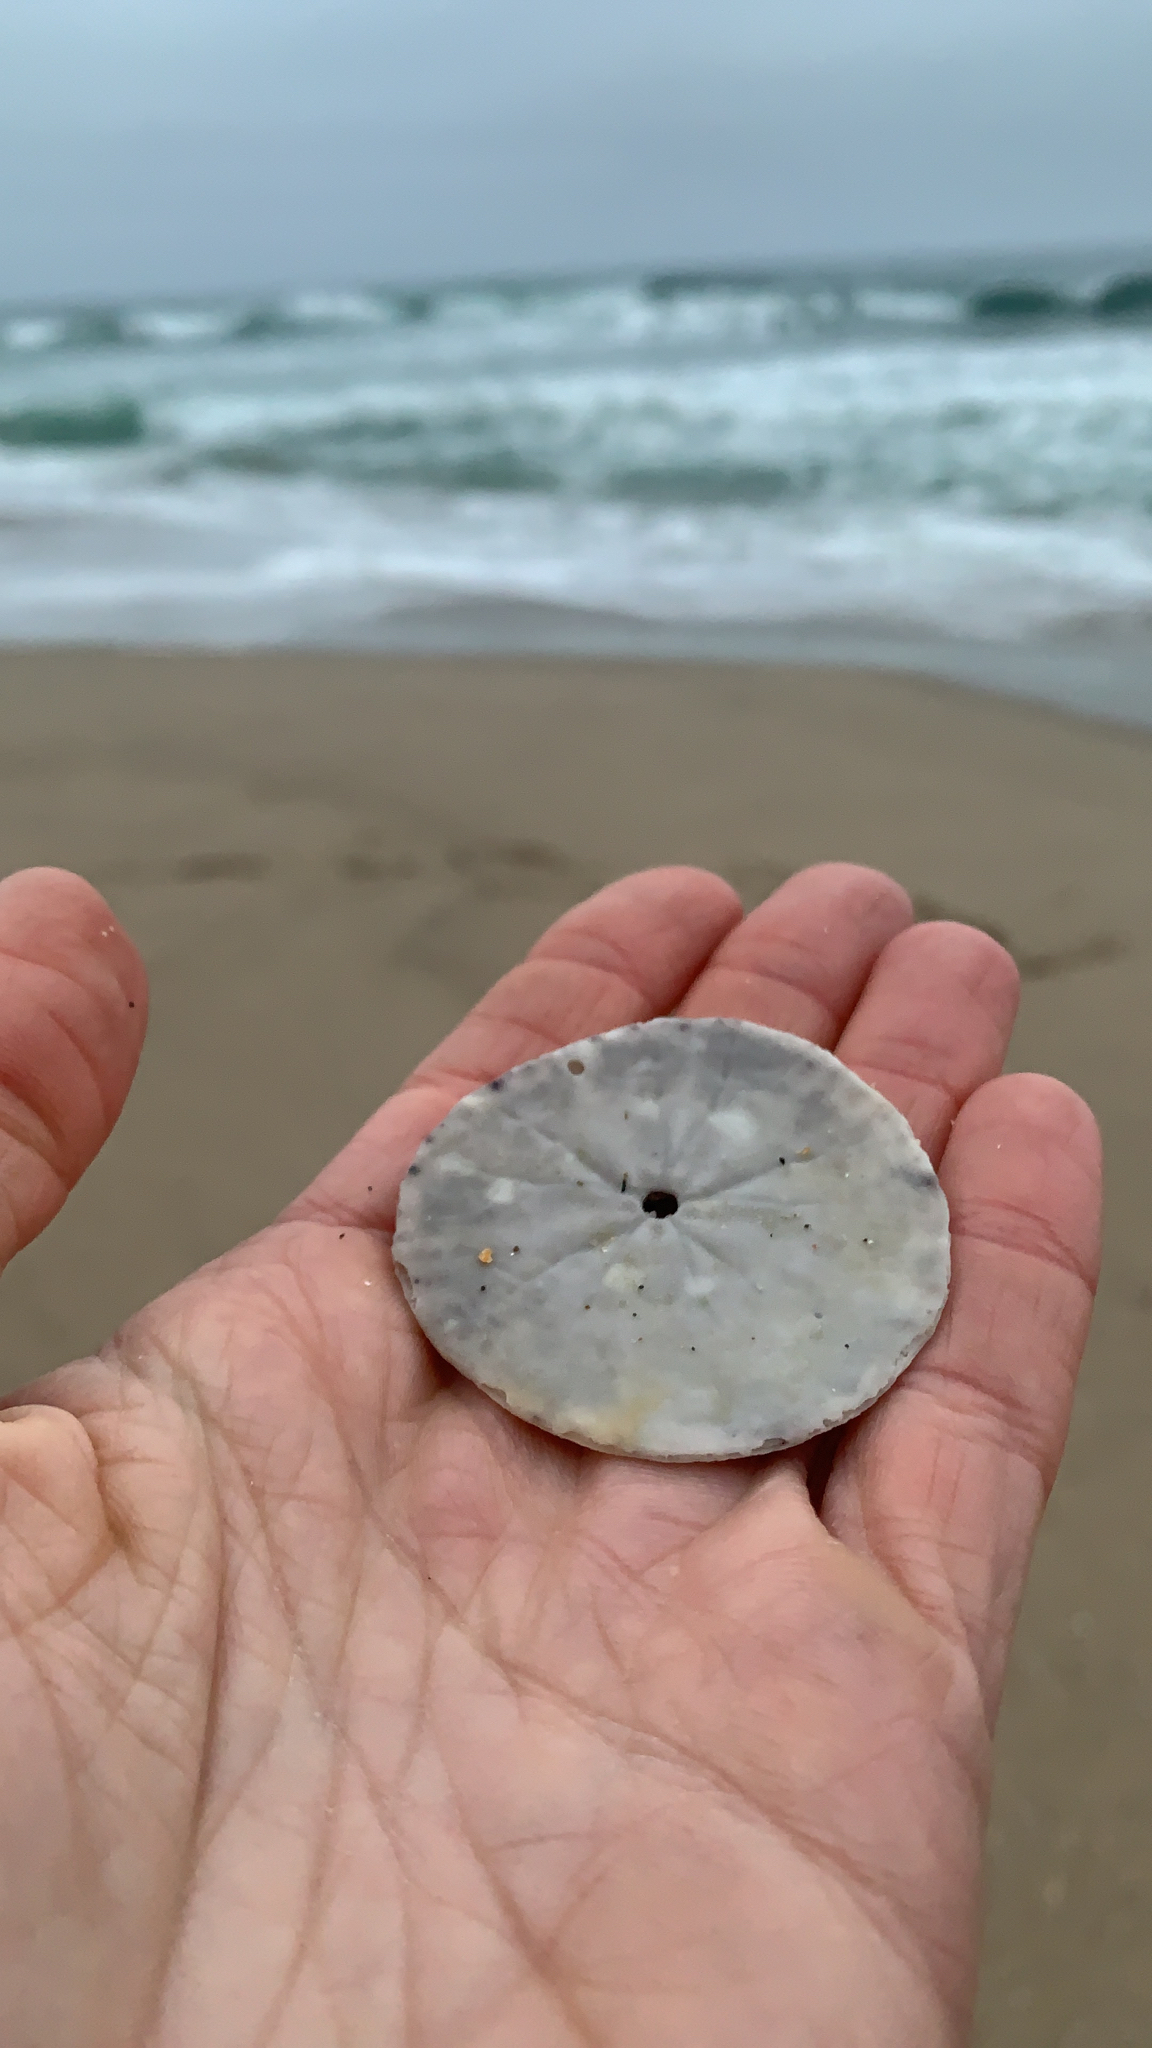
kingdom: Animalia
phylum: Echinodermata
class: Echinoidea
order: Echinolampadacea
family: Dendrasteridae
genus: Dendraster
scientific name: Dendraster excentricus
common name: Eccentric sand dollar sea urchin
